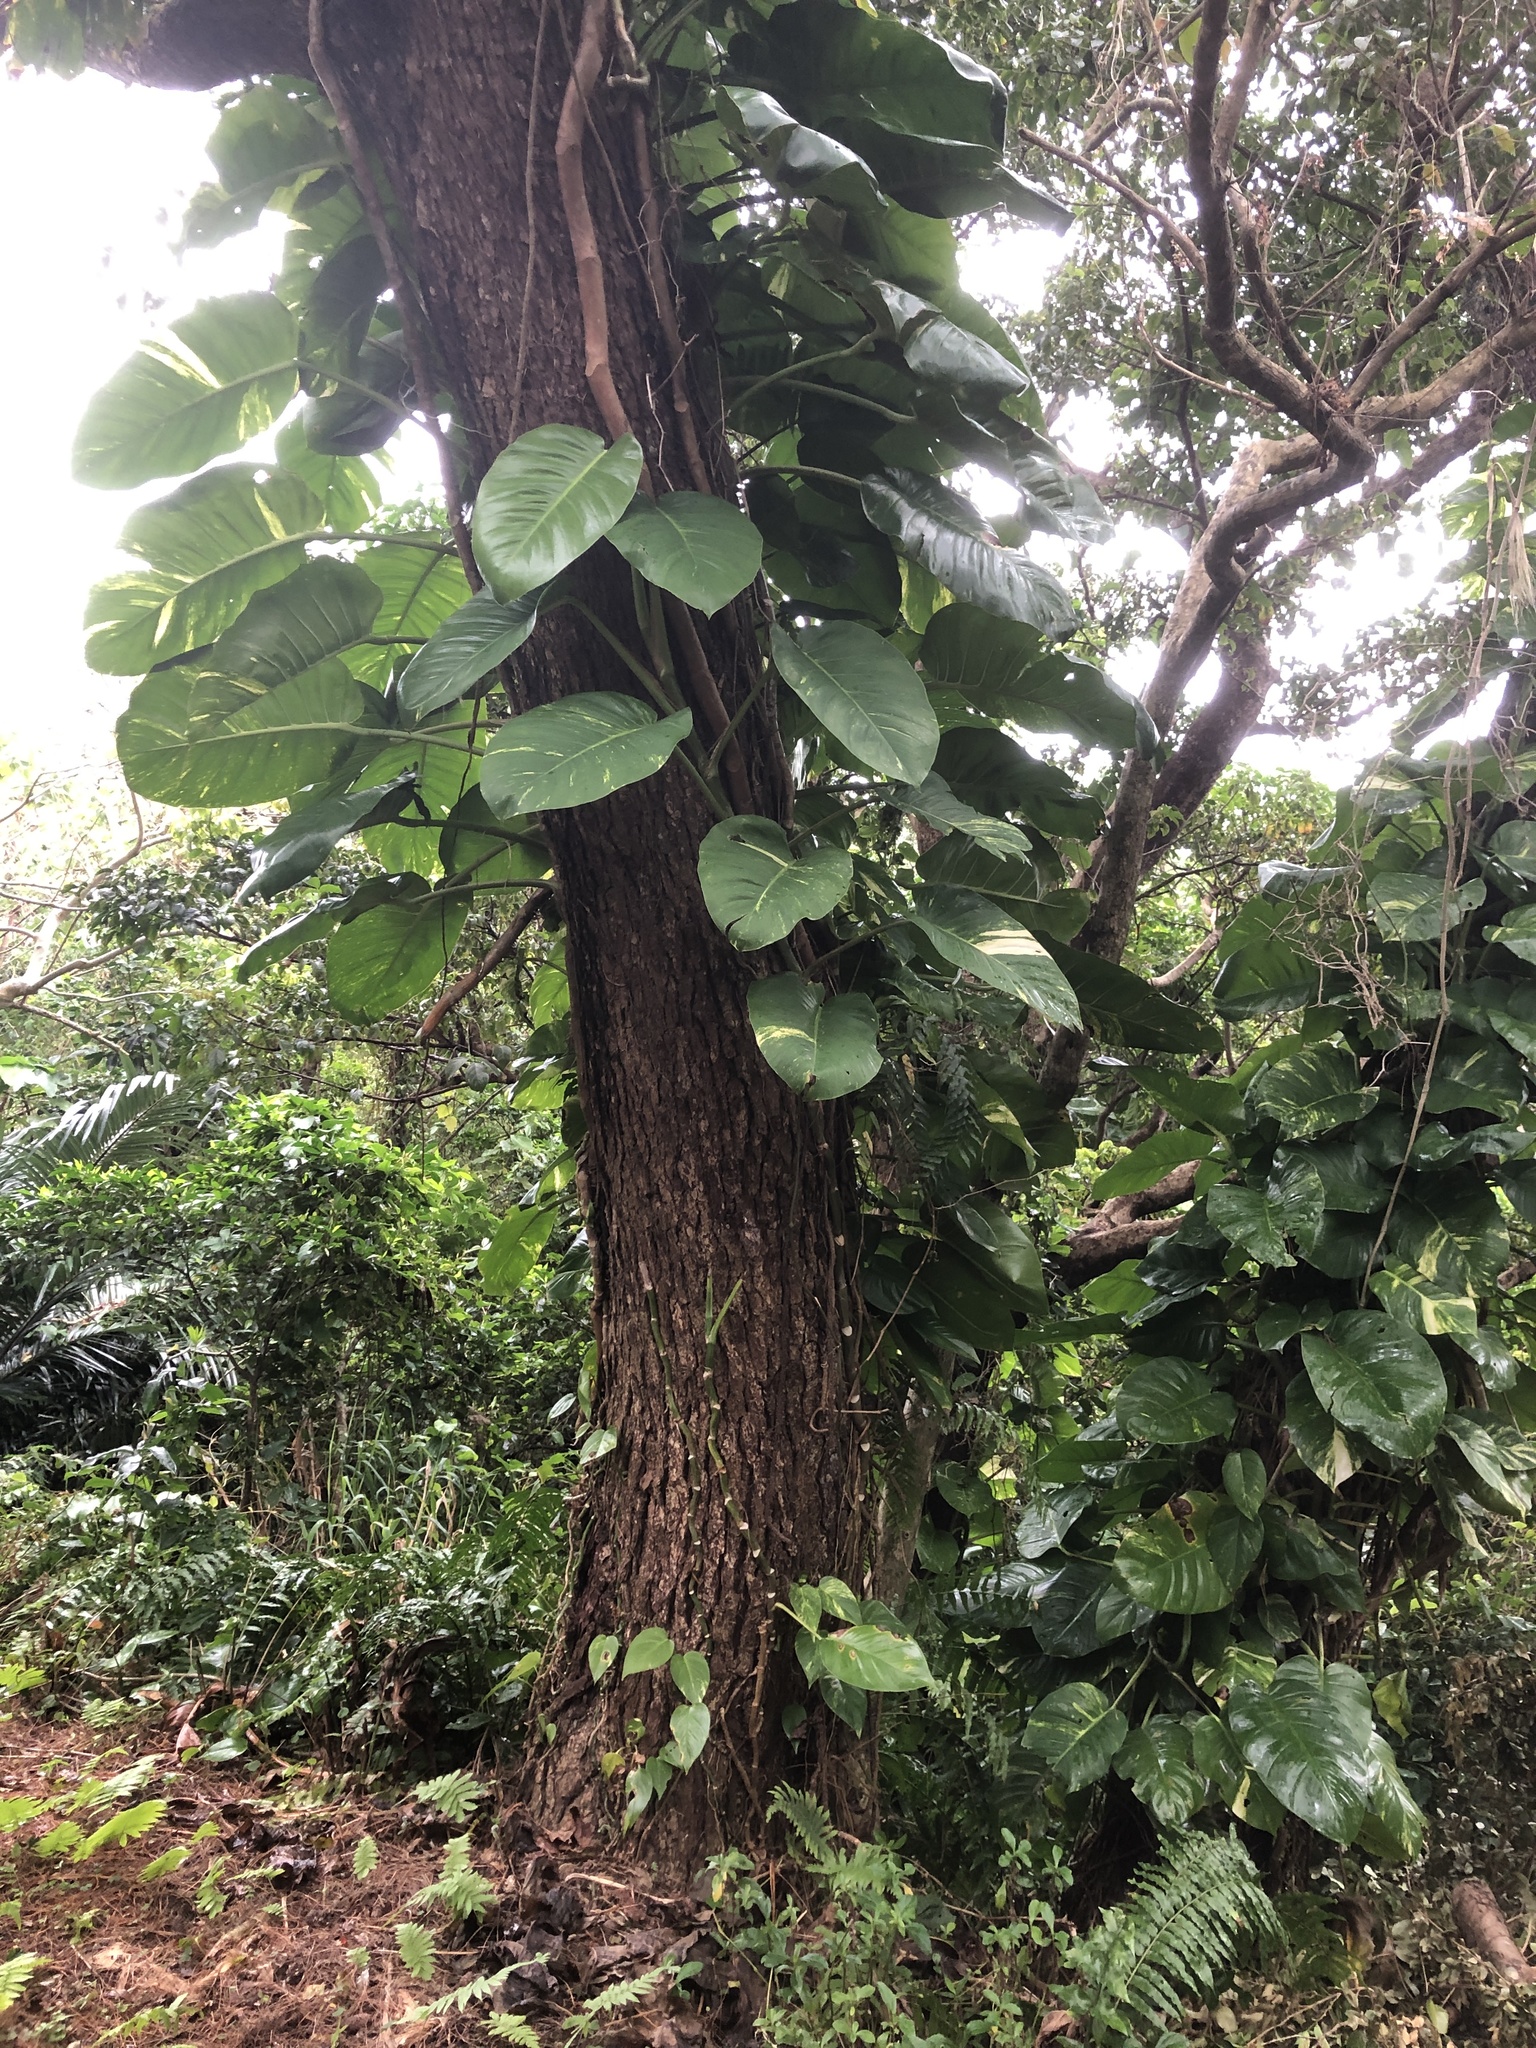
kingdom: Plantae
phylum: Tracheophyta
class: Liliopsida
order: Alismatales
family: Araceae
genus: Epipremnum
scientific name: Epipremnum aureum
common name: Golden hunter's-robe
